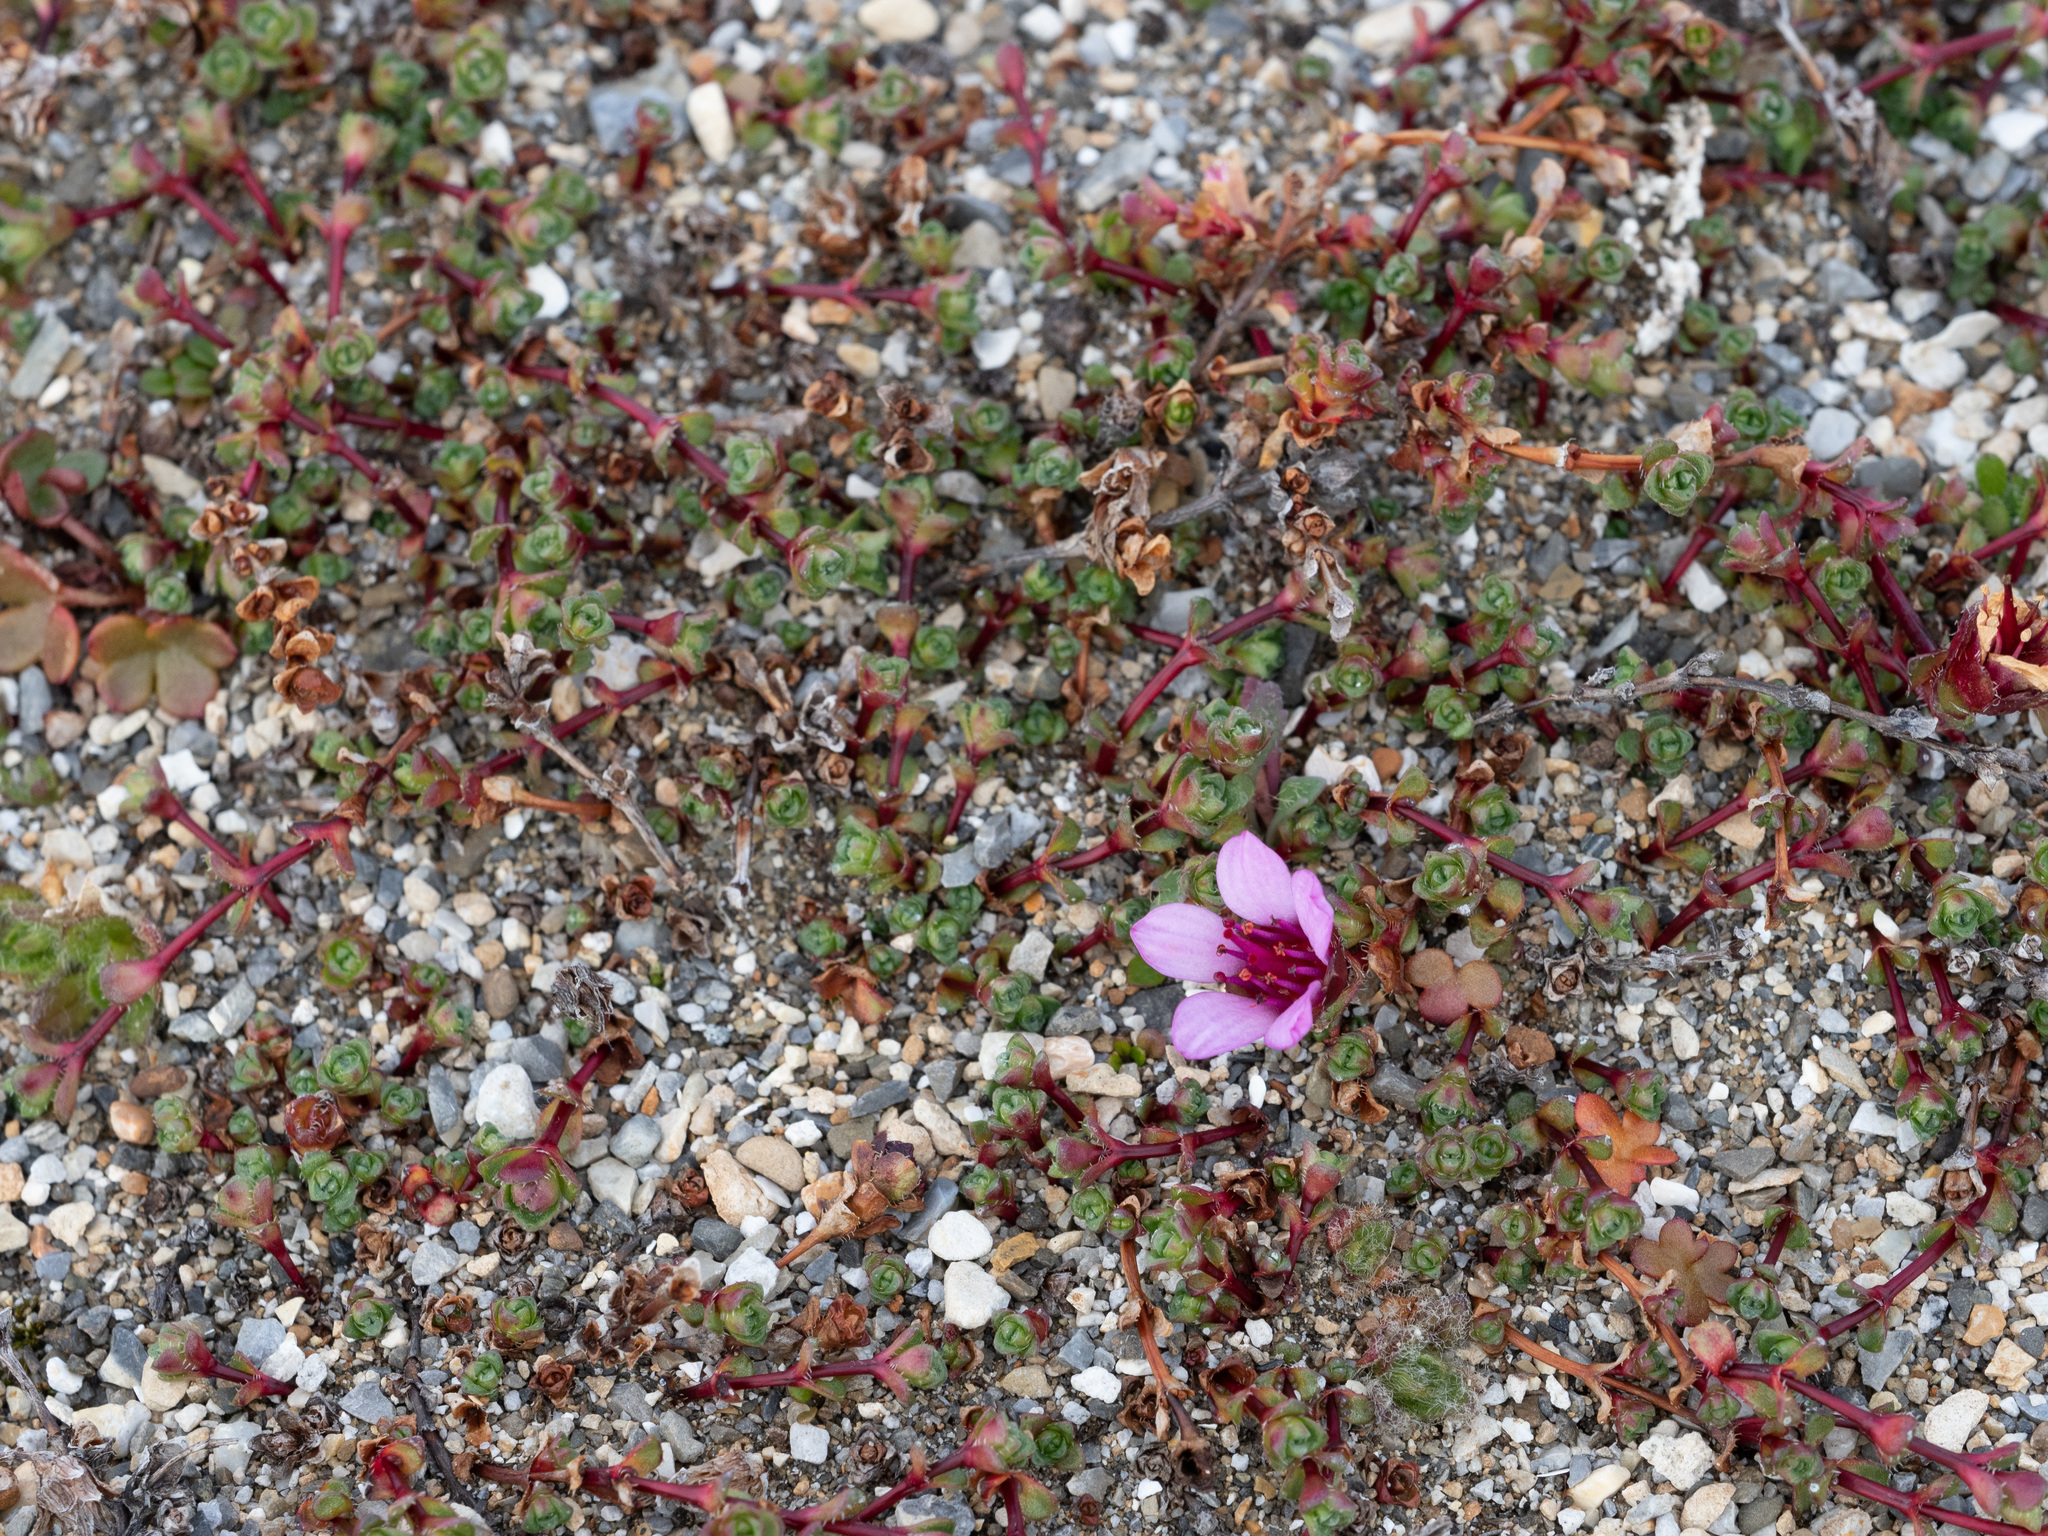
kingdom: Plantae
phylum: Tracheophyta
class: Magnoliopsida
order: Saxifragales
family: Saxifragaceae
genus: Saxifraga
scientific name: Saxifraga oppositifolia
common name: Purple saxifrage
